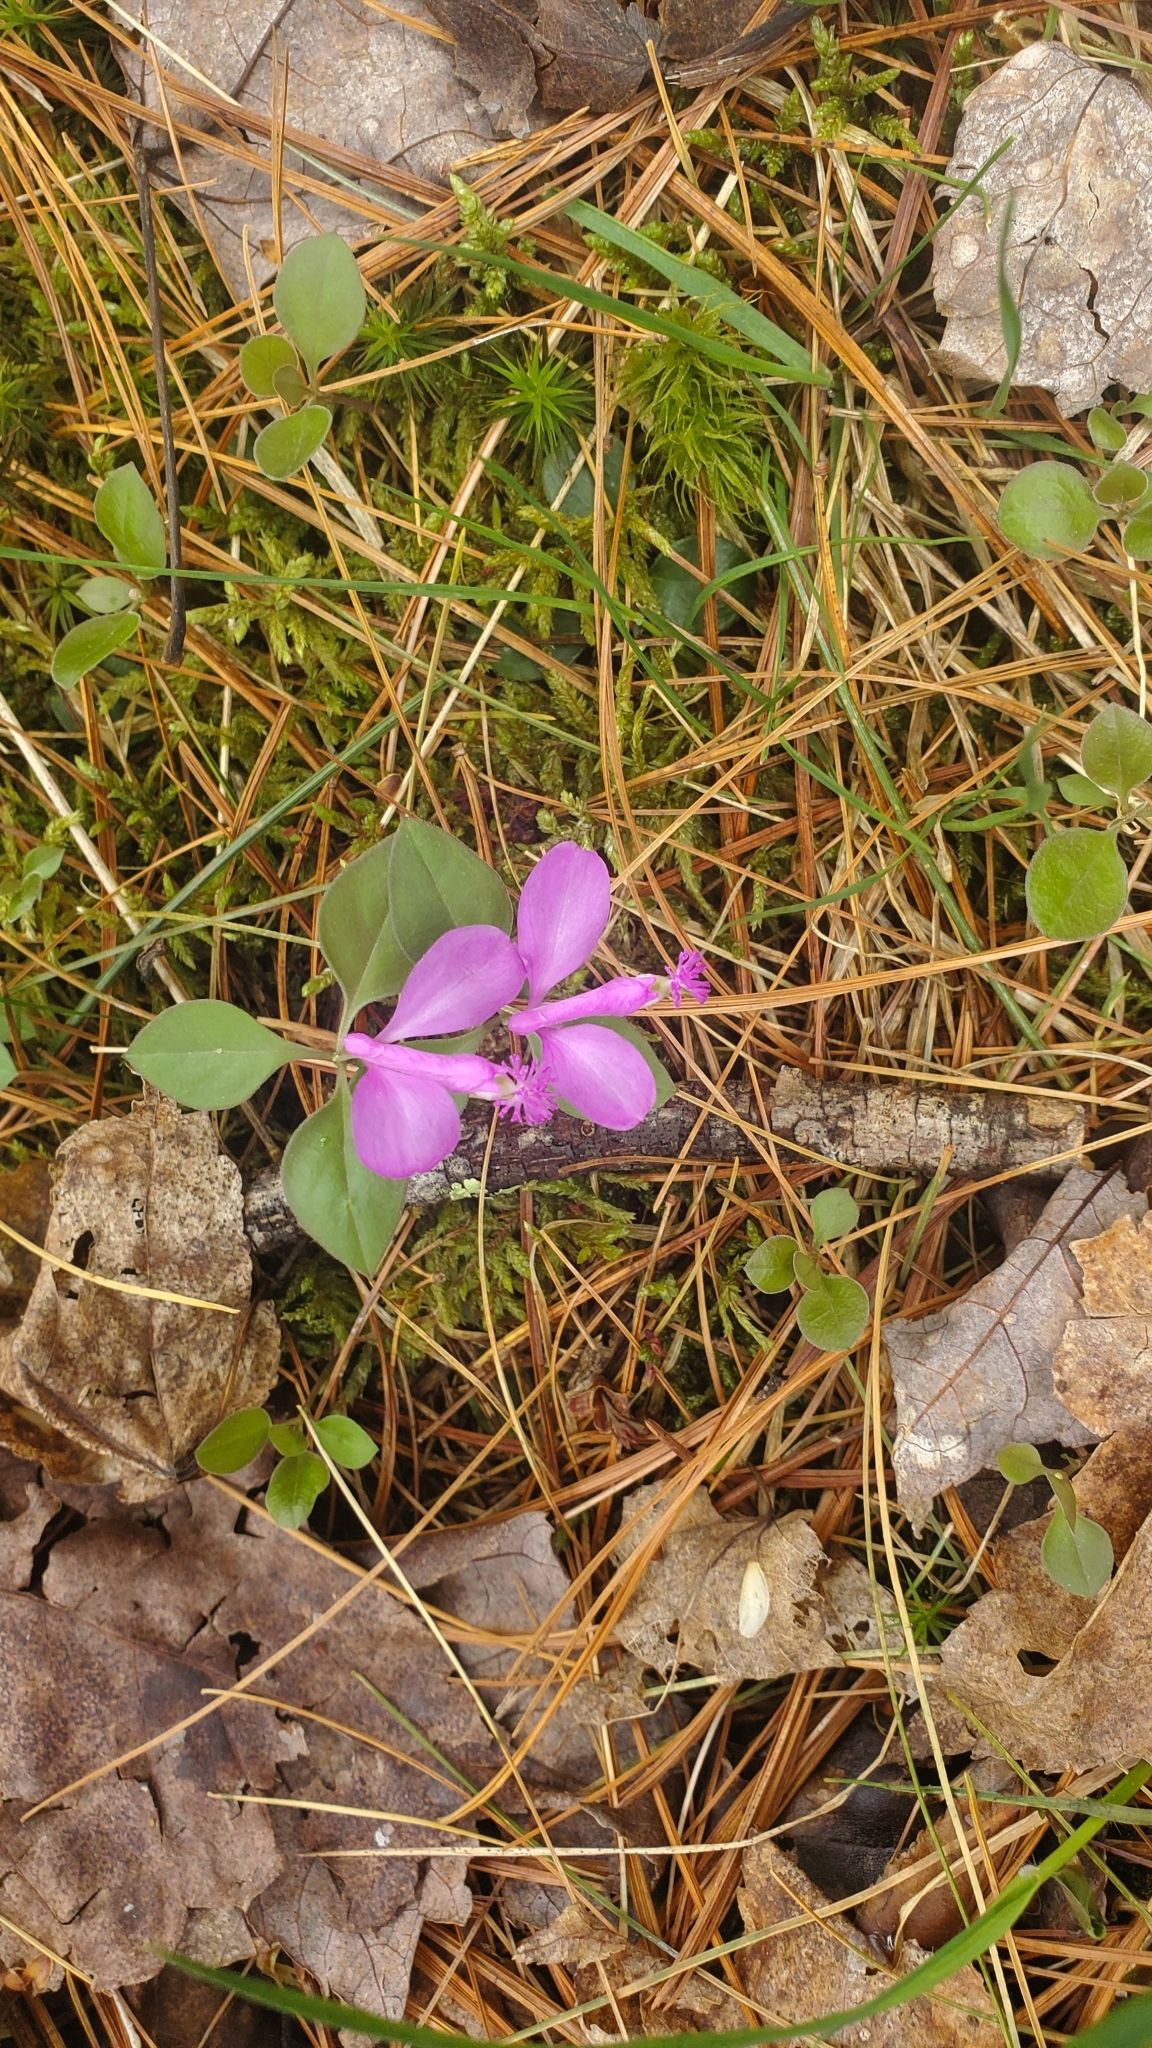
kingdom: Plantae
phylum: Tracheophyta
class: Magnoliopsida
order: Fabales
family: Polygalaceae
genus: Polygaloides
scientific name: Polygaloides paucifolia
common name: Bird-on-the-wing
